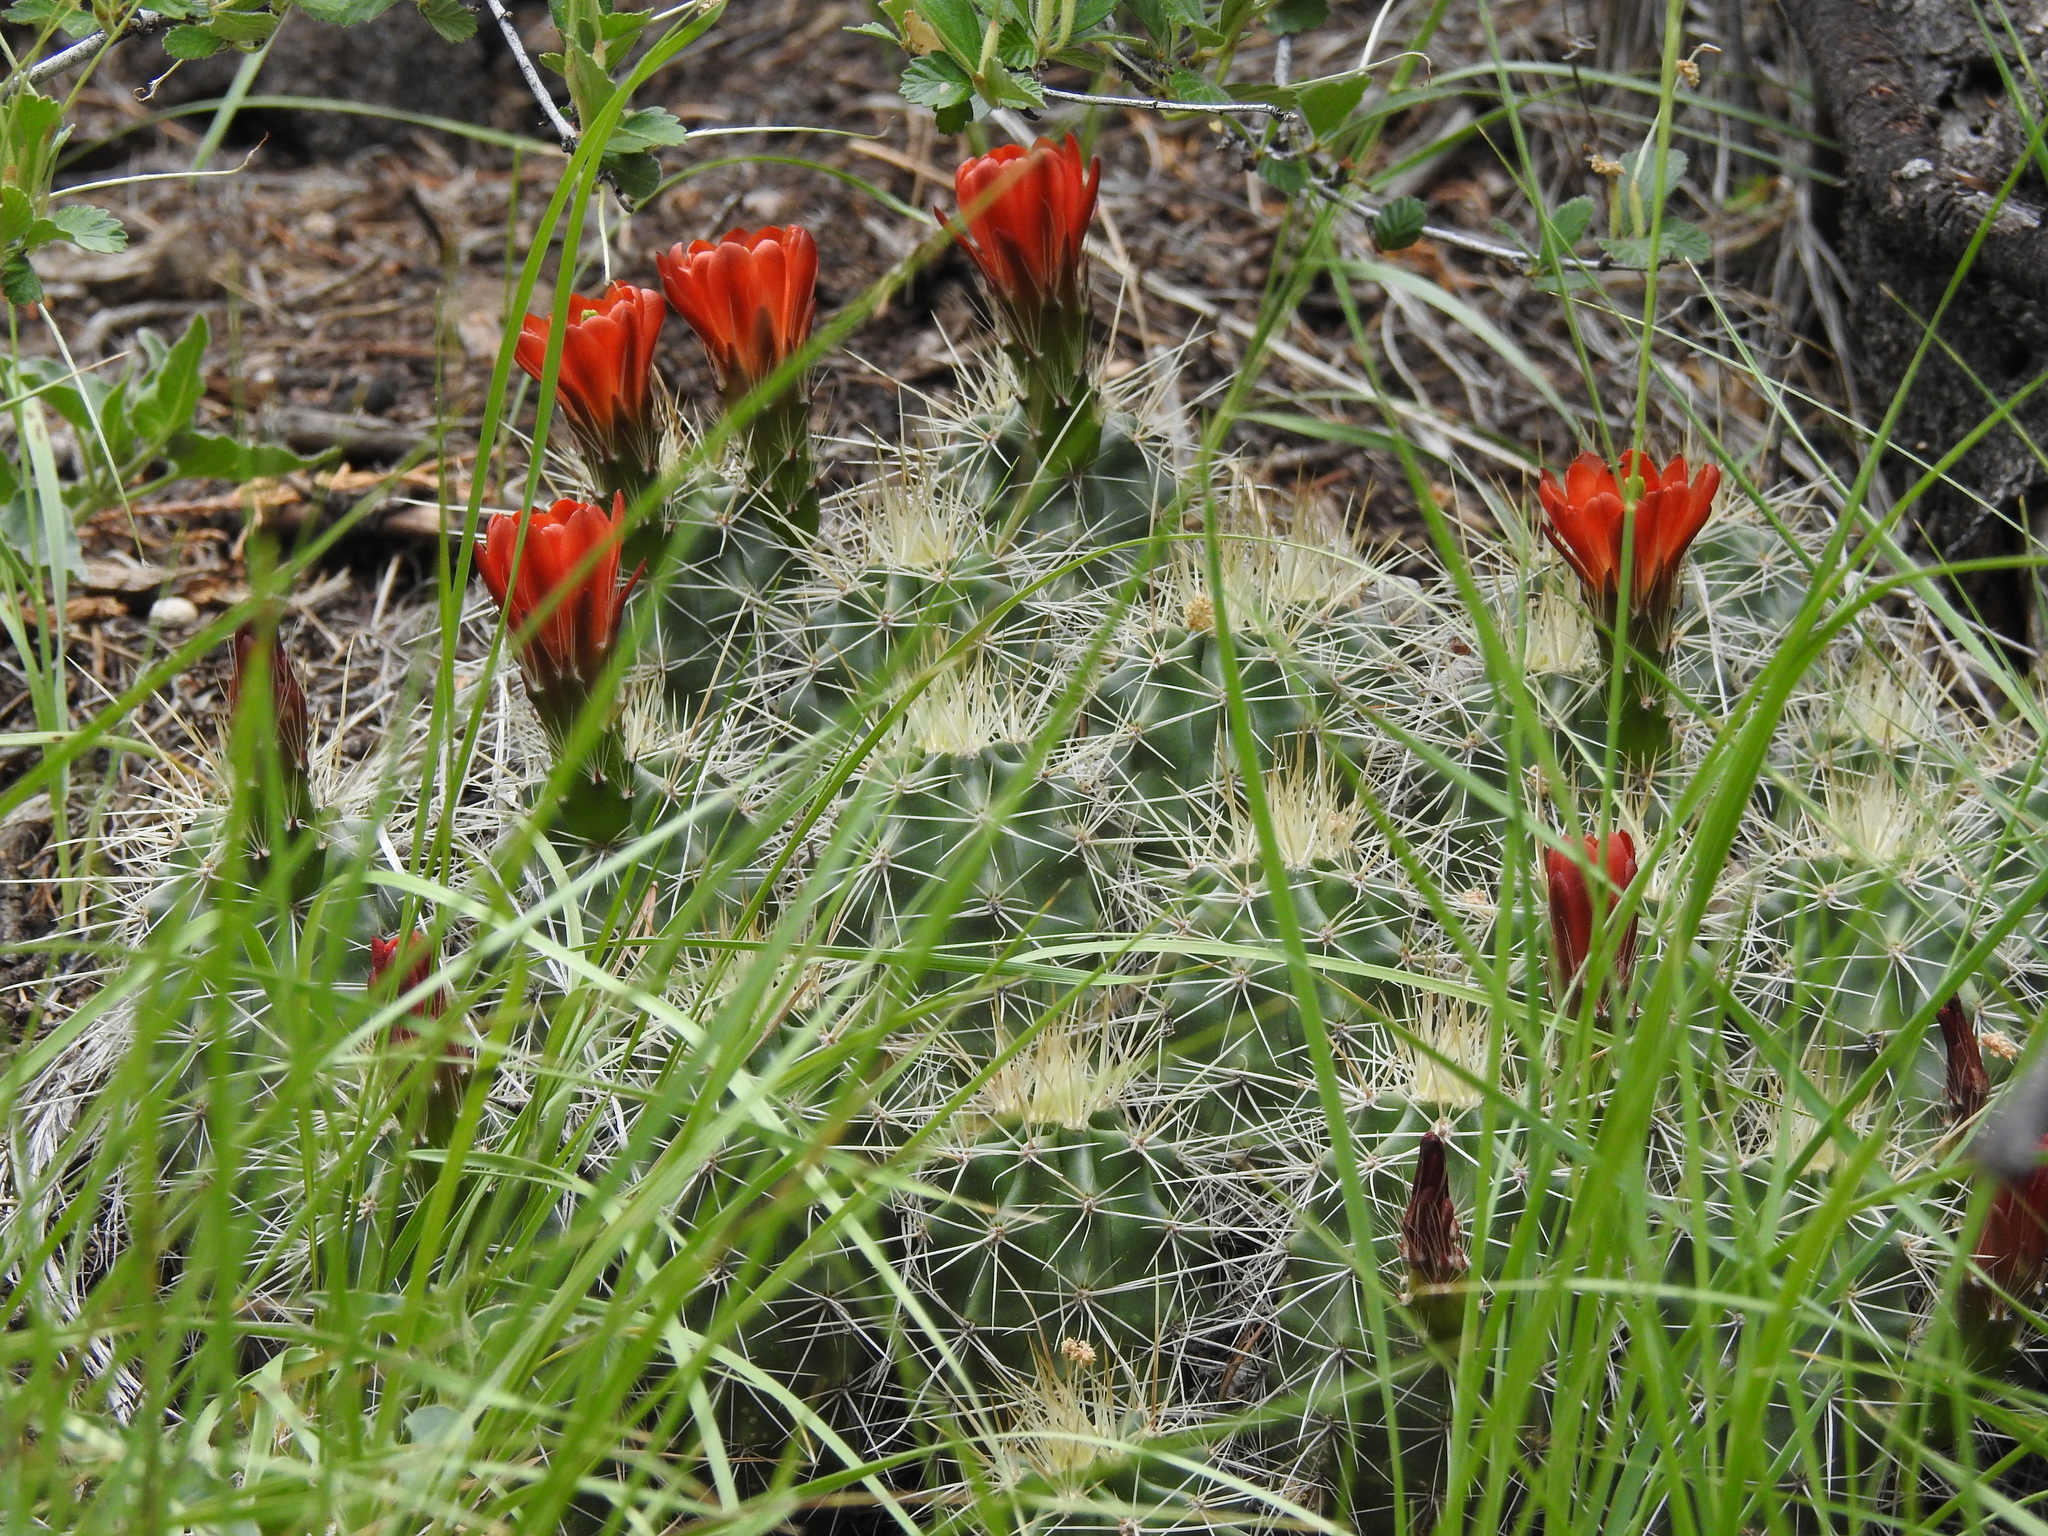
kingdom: Plantae
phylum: Tracheophyta
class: Magnoliopsida
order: Caryophyllales
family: Cactaceae
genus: Echinocereus
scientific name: Echinocereus coccineus
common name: Scarlet hedgehog cactus
